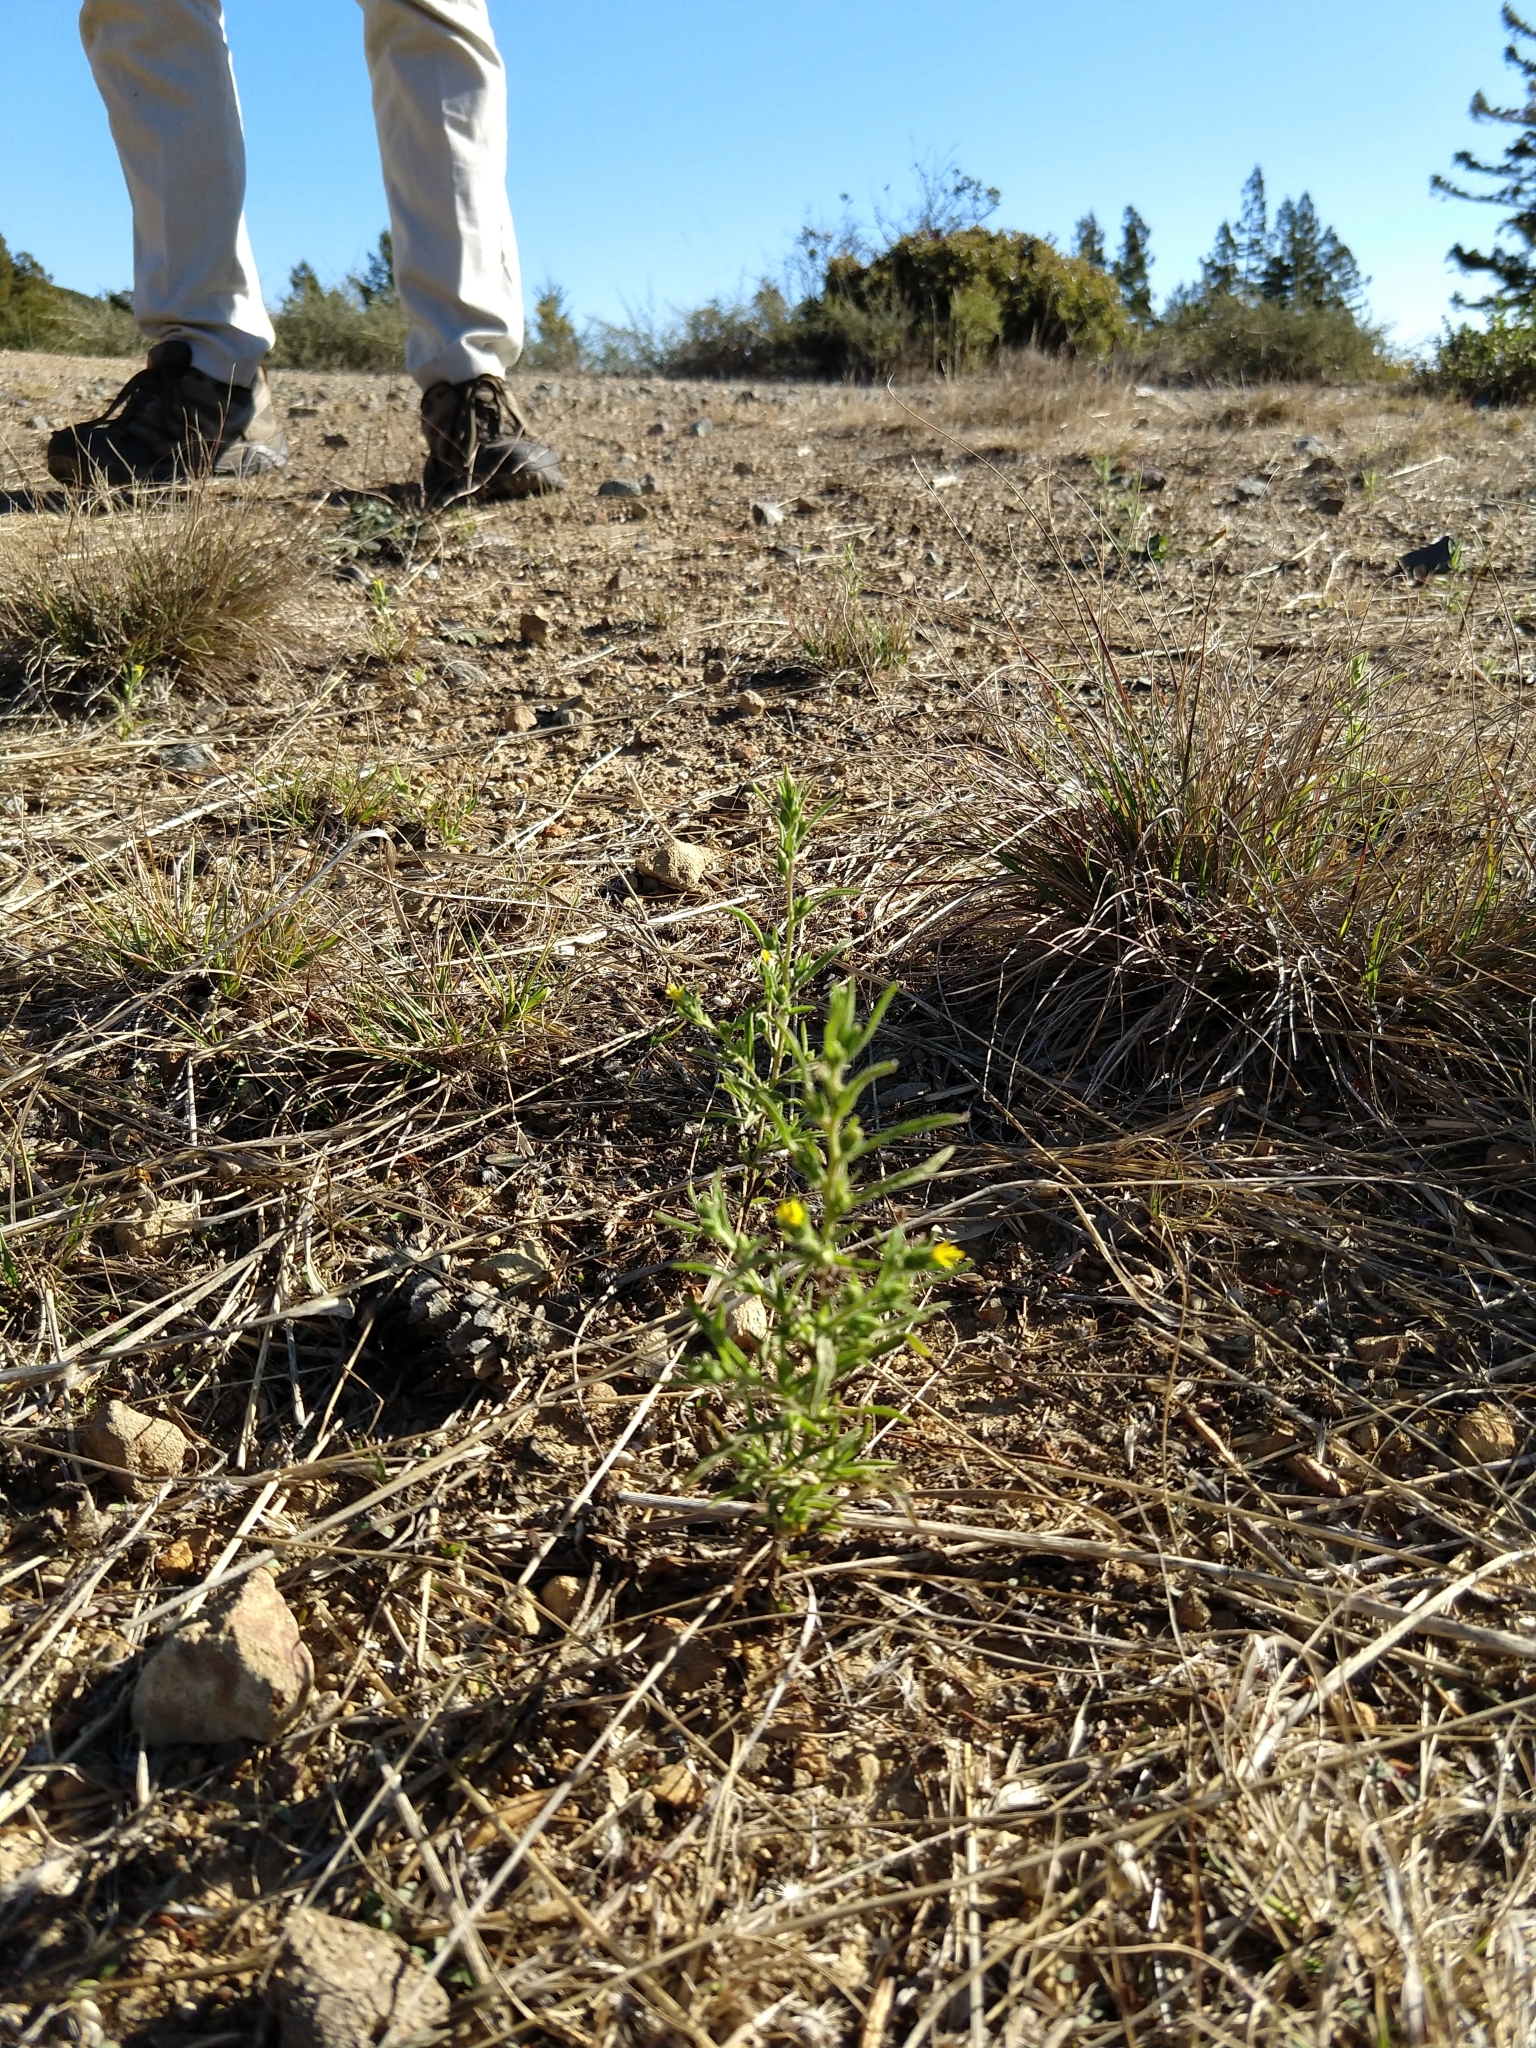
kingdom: Plantae
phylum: Tracheophyta
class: Magnoliopsida
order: Asterales
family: Asteraceae
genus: Dittrichia
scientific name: Dittrichia graveolens
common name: Stinking fleabane
